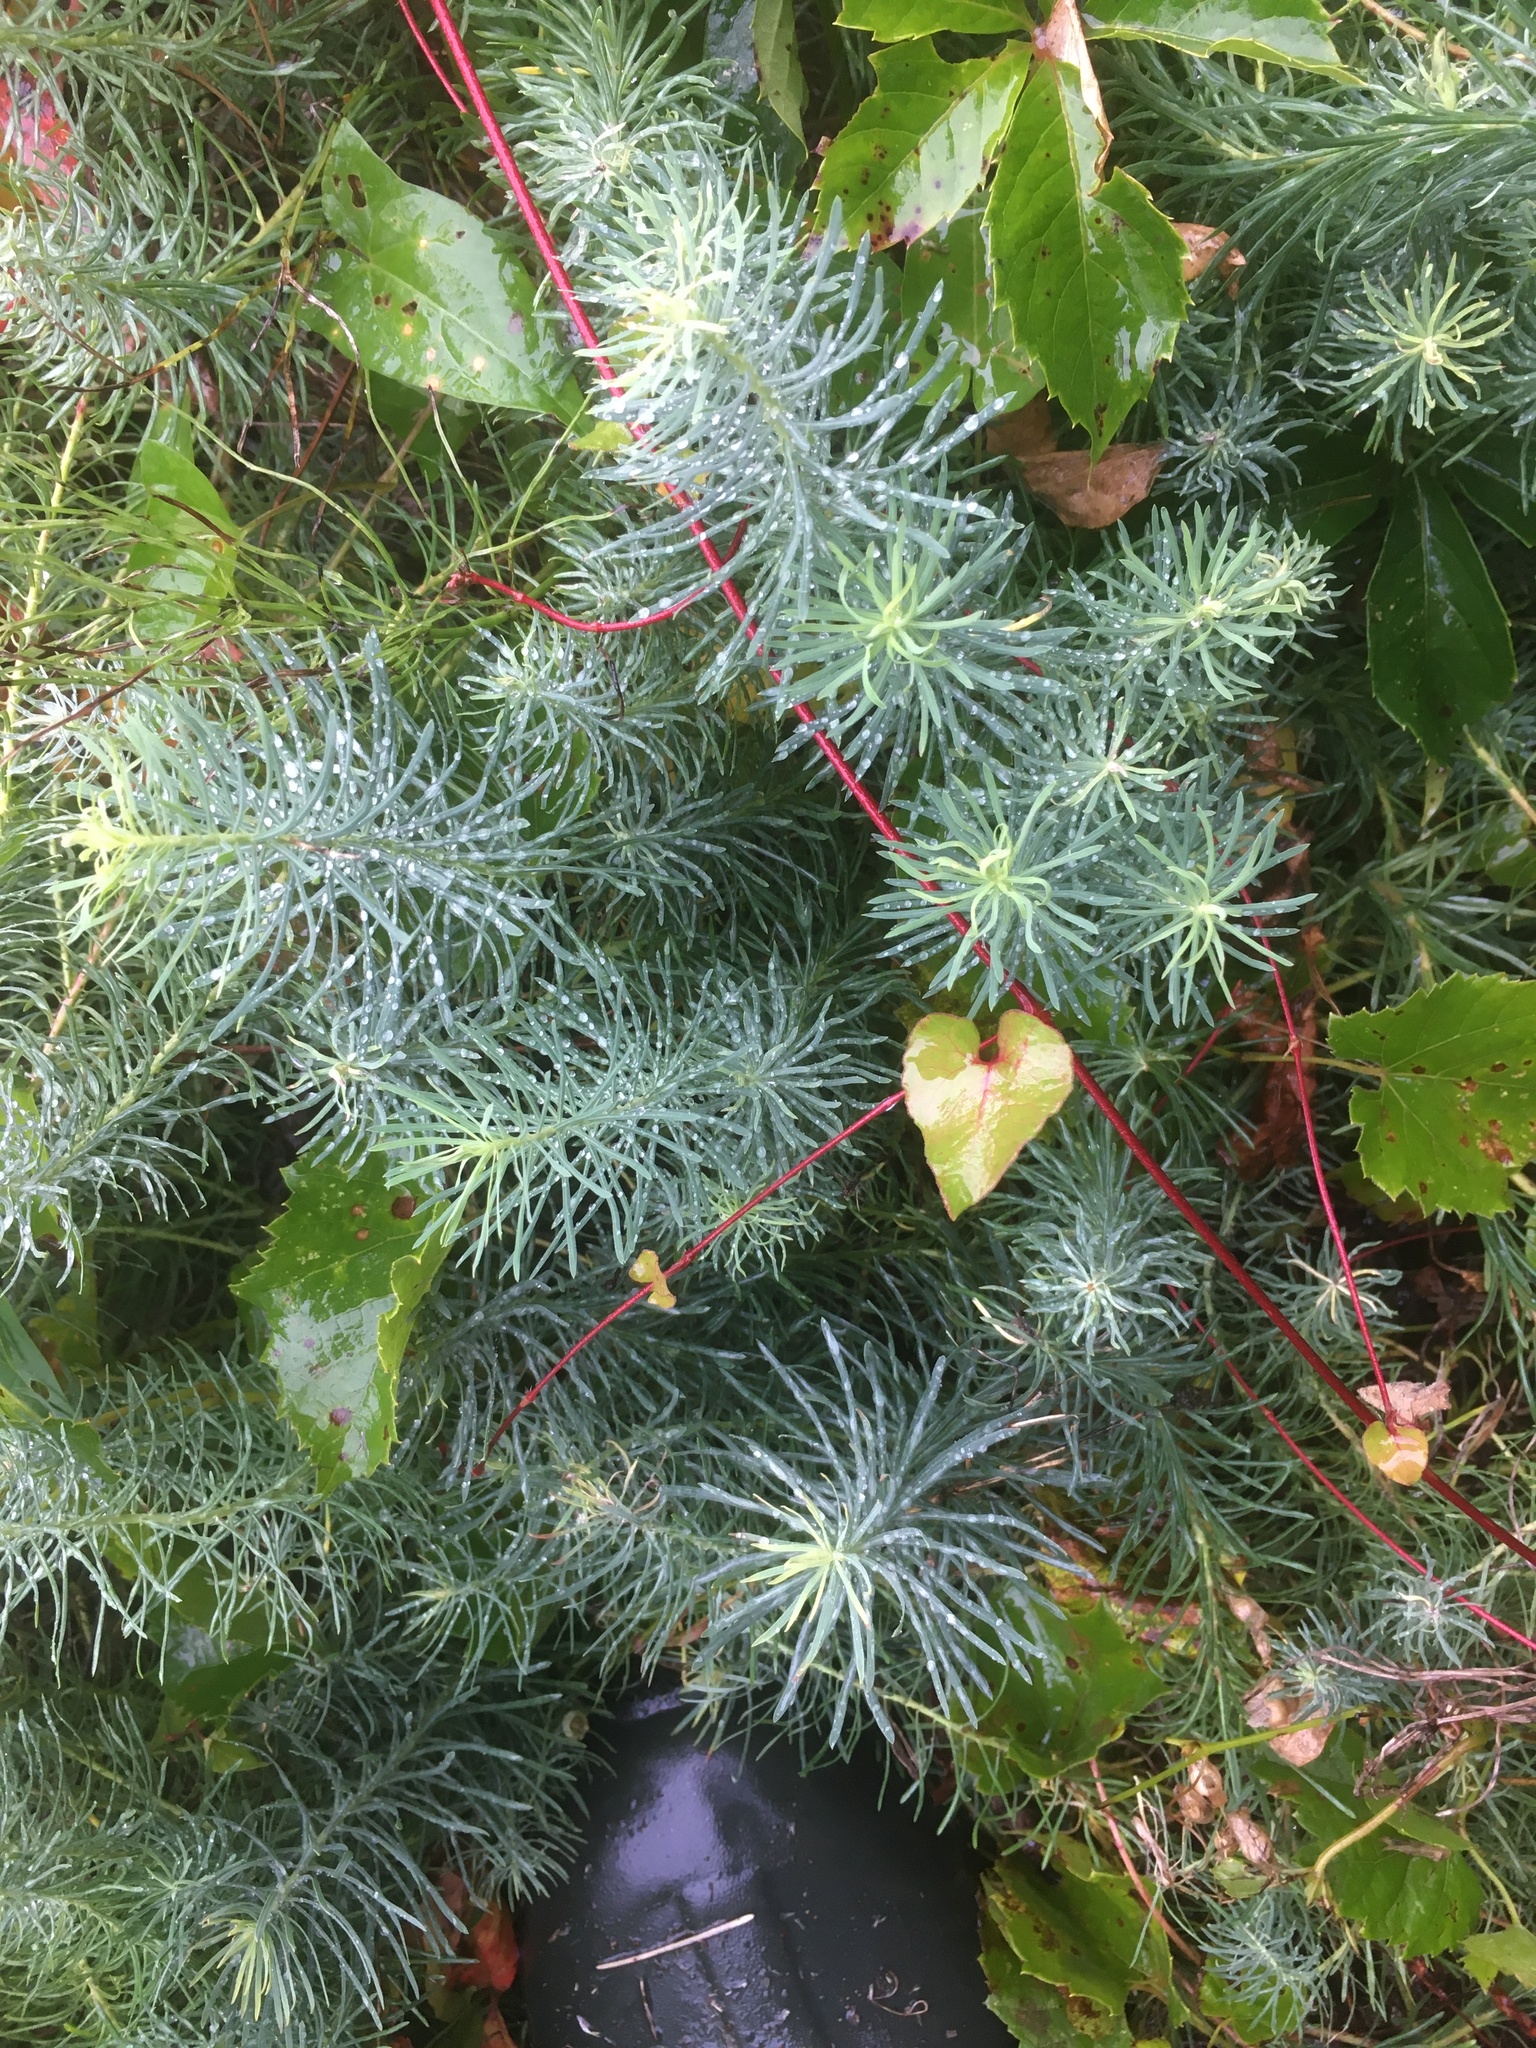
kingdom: Plantae
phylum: Tracheophyta
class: Magnoliopsida
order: Malpighiales
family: Euphorbiaceae
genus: Euphorbia
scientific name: Euphorbia cyparissias
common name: Cypress spurge
